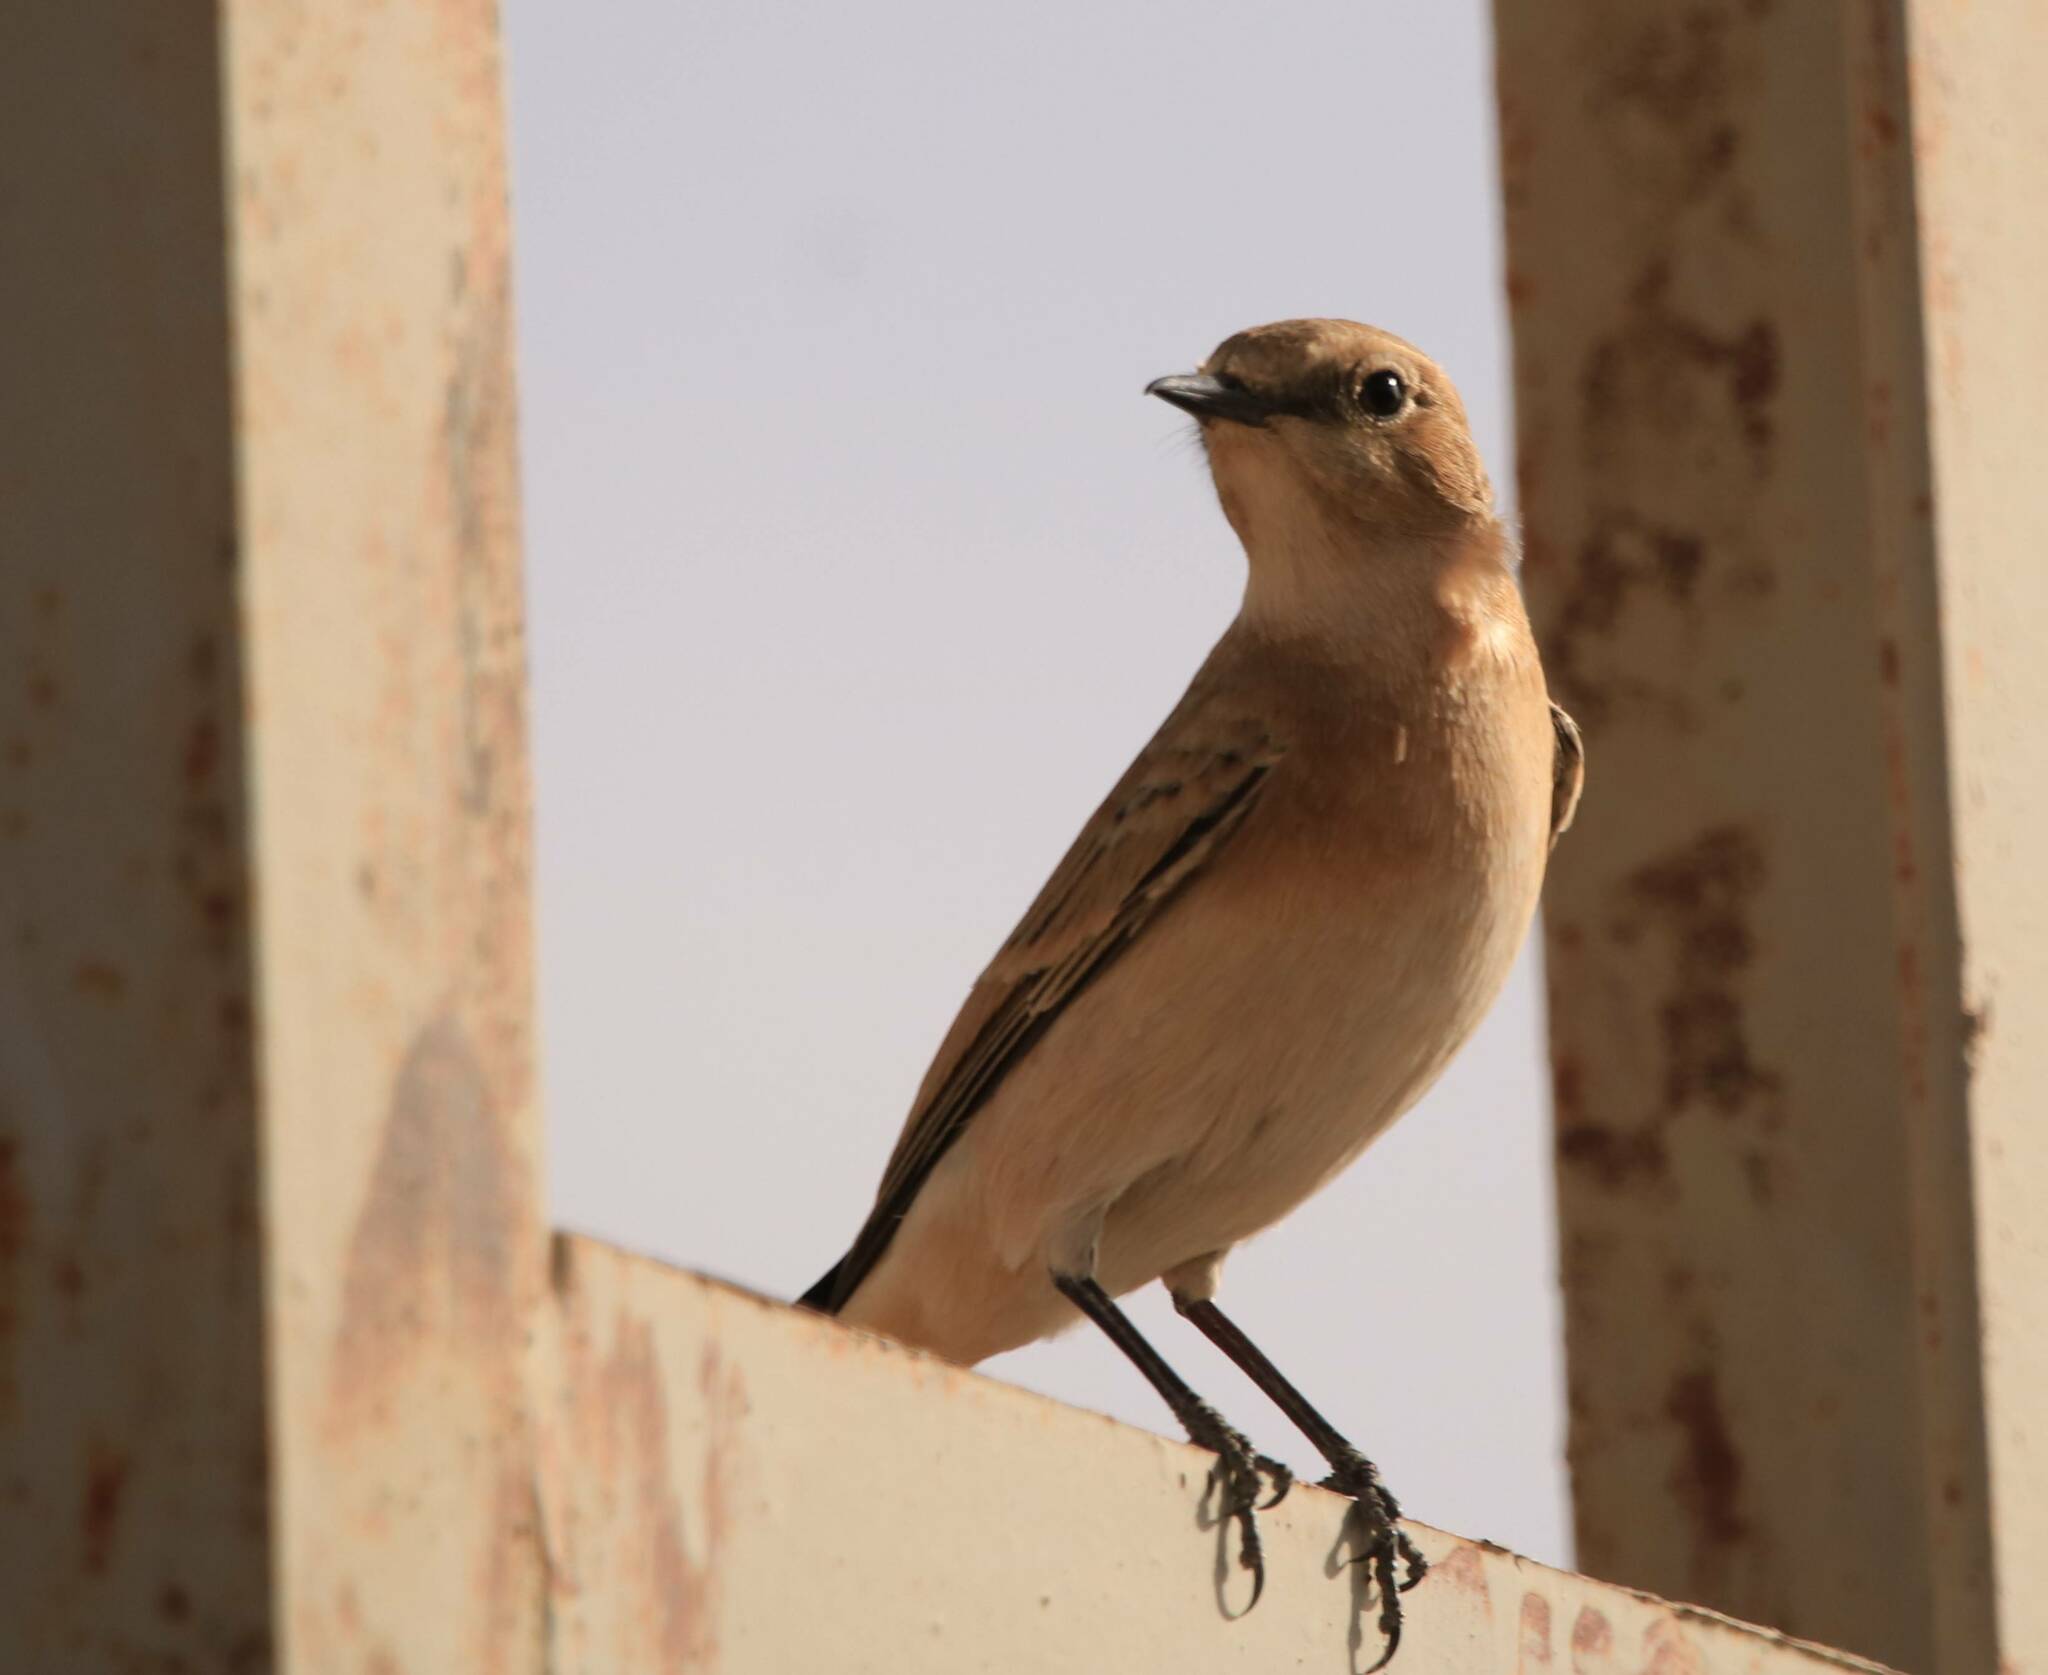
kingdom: Animalia
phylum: Chordata
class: Aves
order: Passeriformes
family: Muscicapidae
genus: Oenanthe
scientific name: Oenanthe hispanica
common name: Black-eared wheatear
